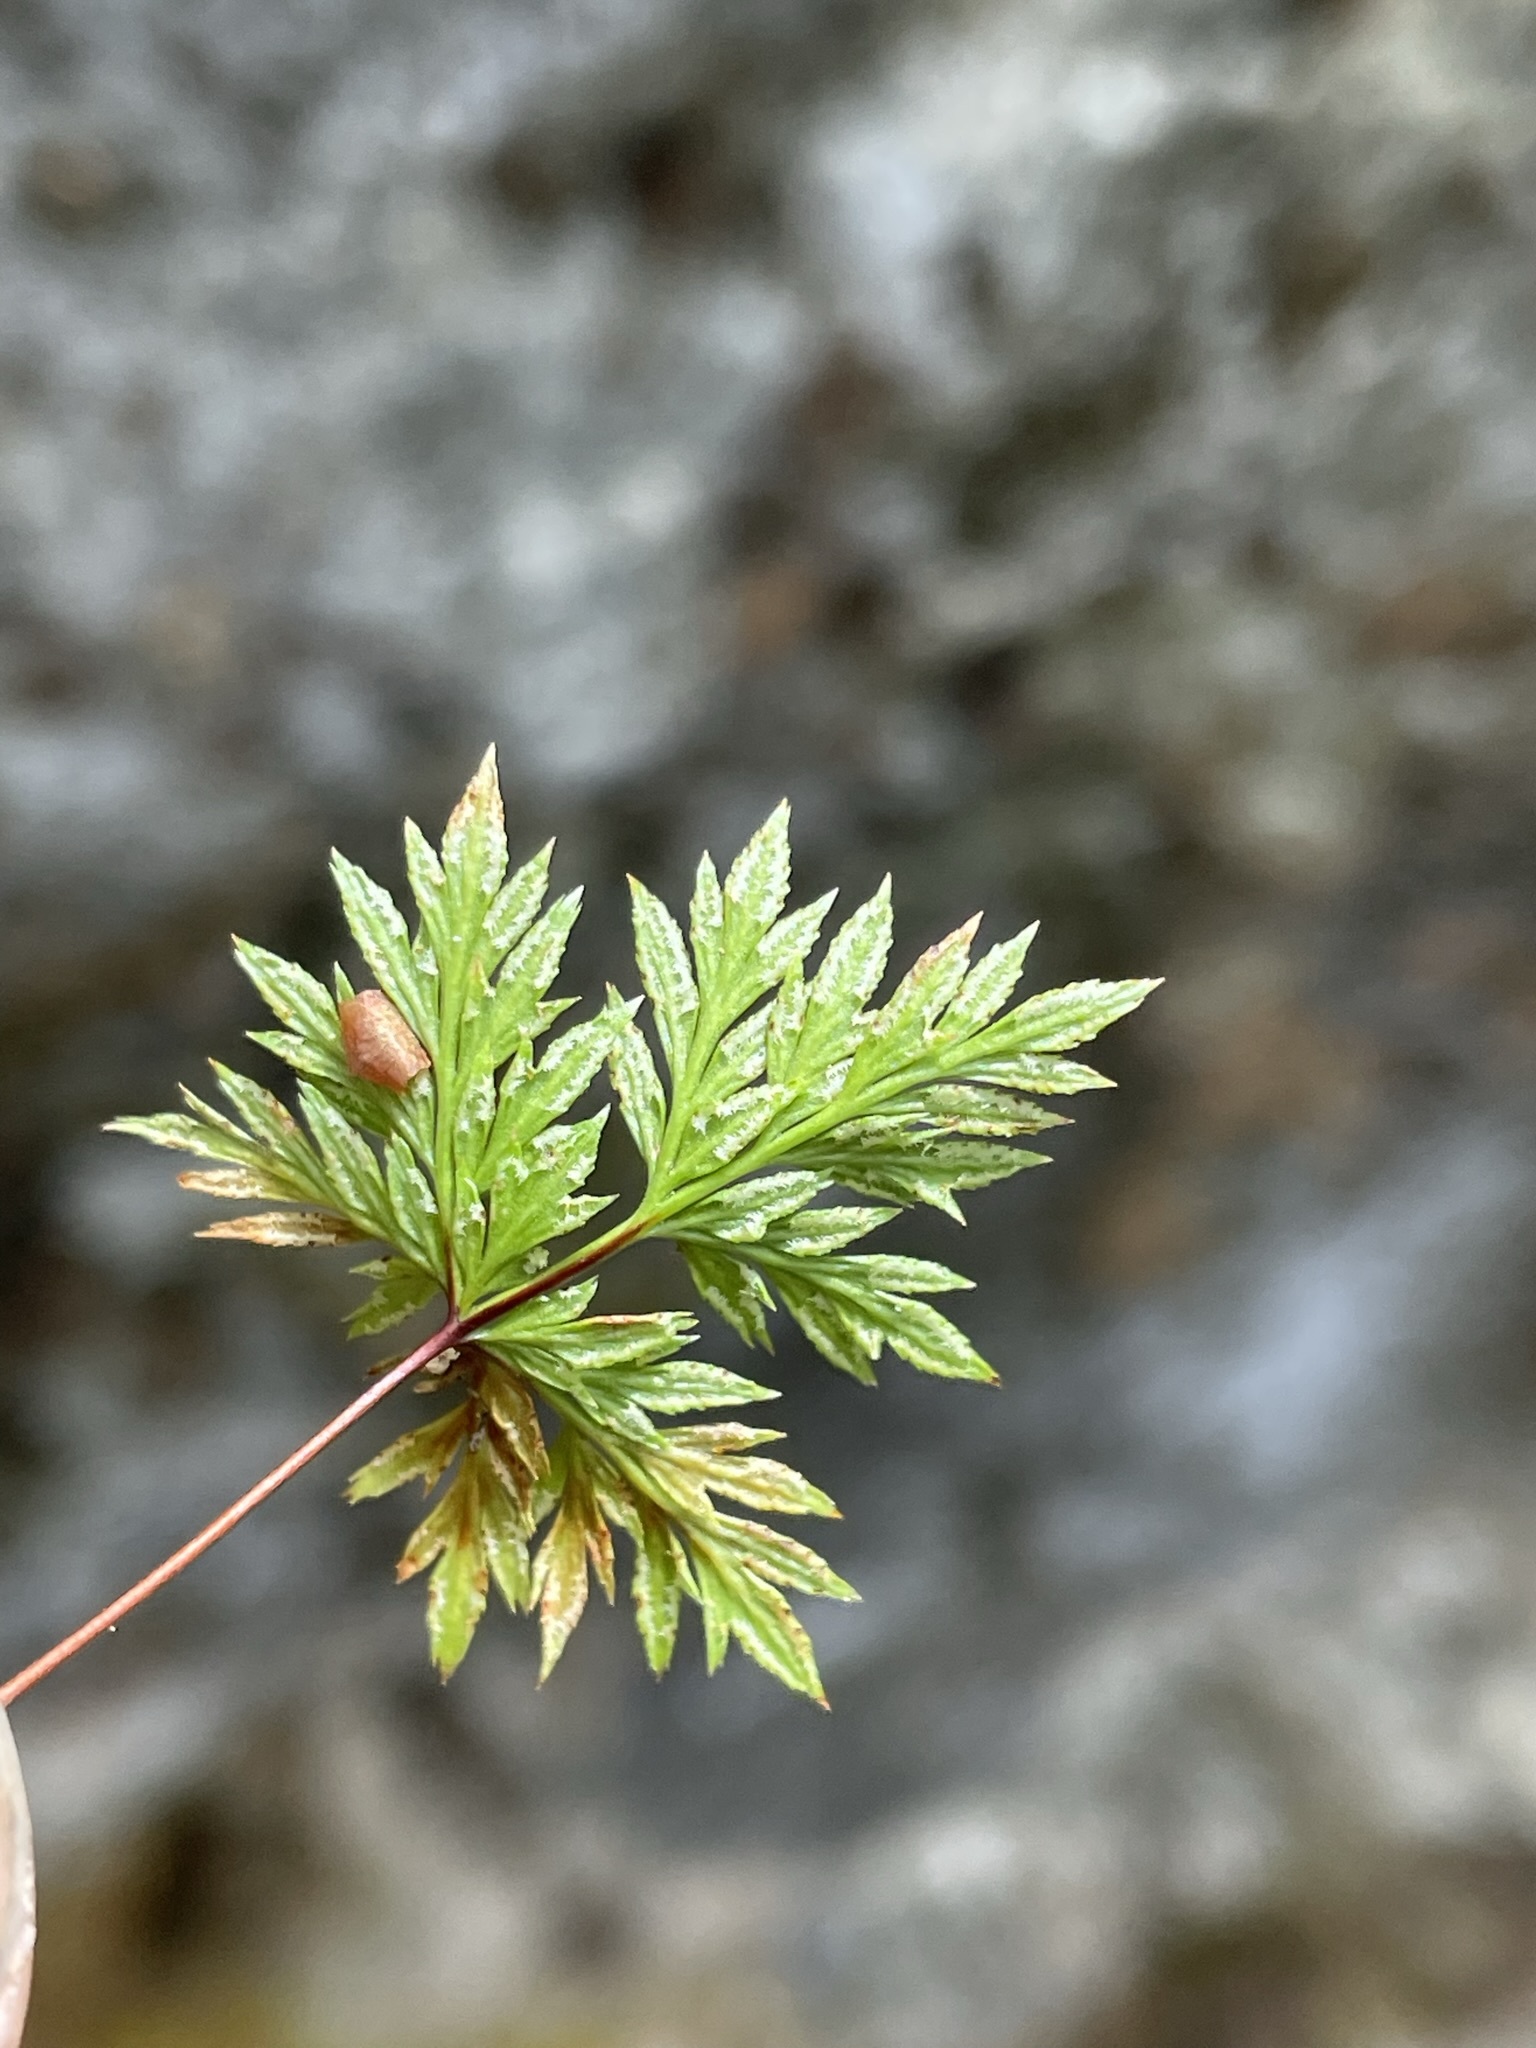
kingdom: Plantae
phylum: Tracheophyta
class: Polypodiopsida
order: Polypodiales
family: Pteridaceae
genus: Aspidotis
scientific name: Aspidotis densa
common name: Indian's dream
